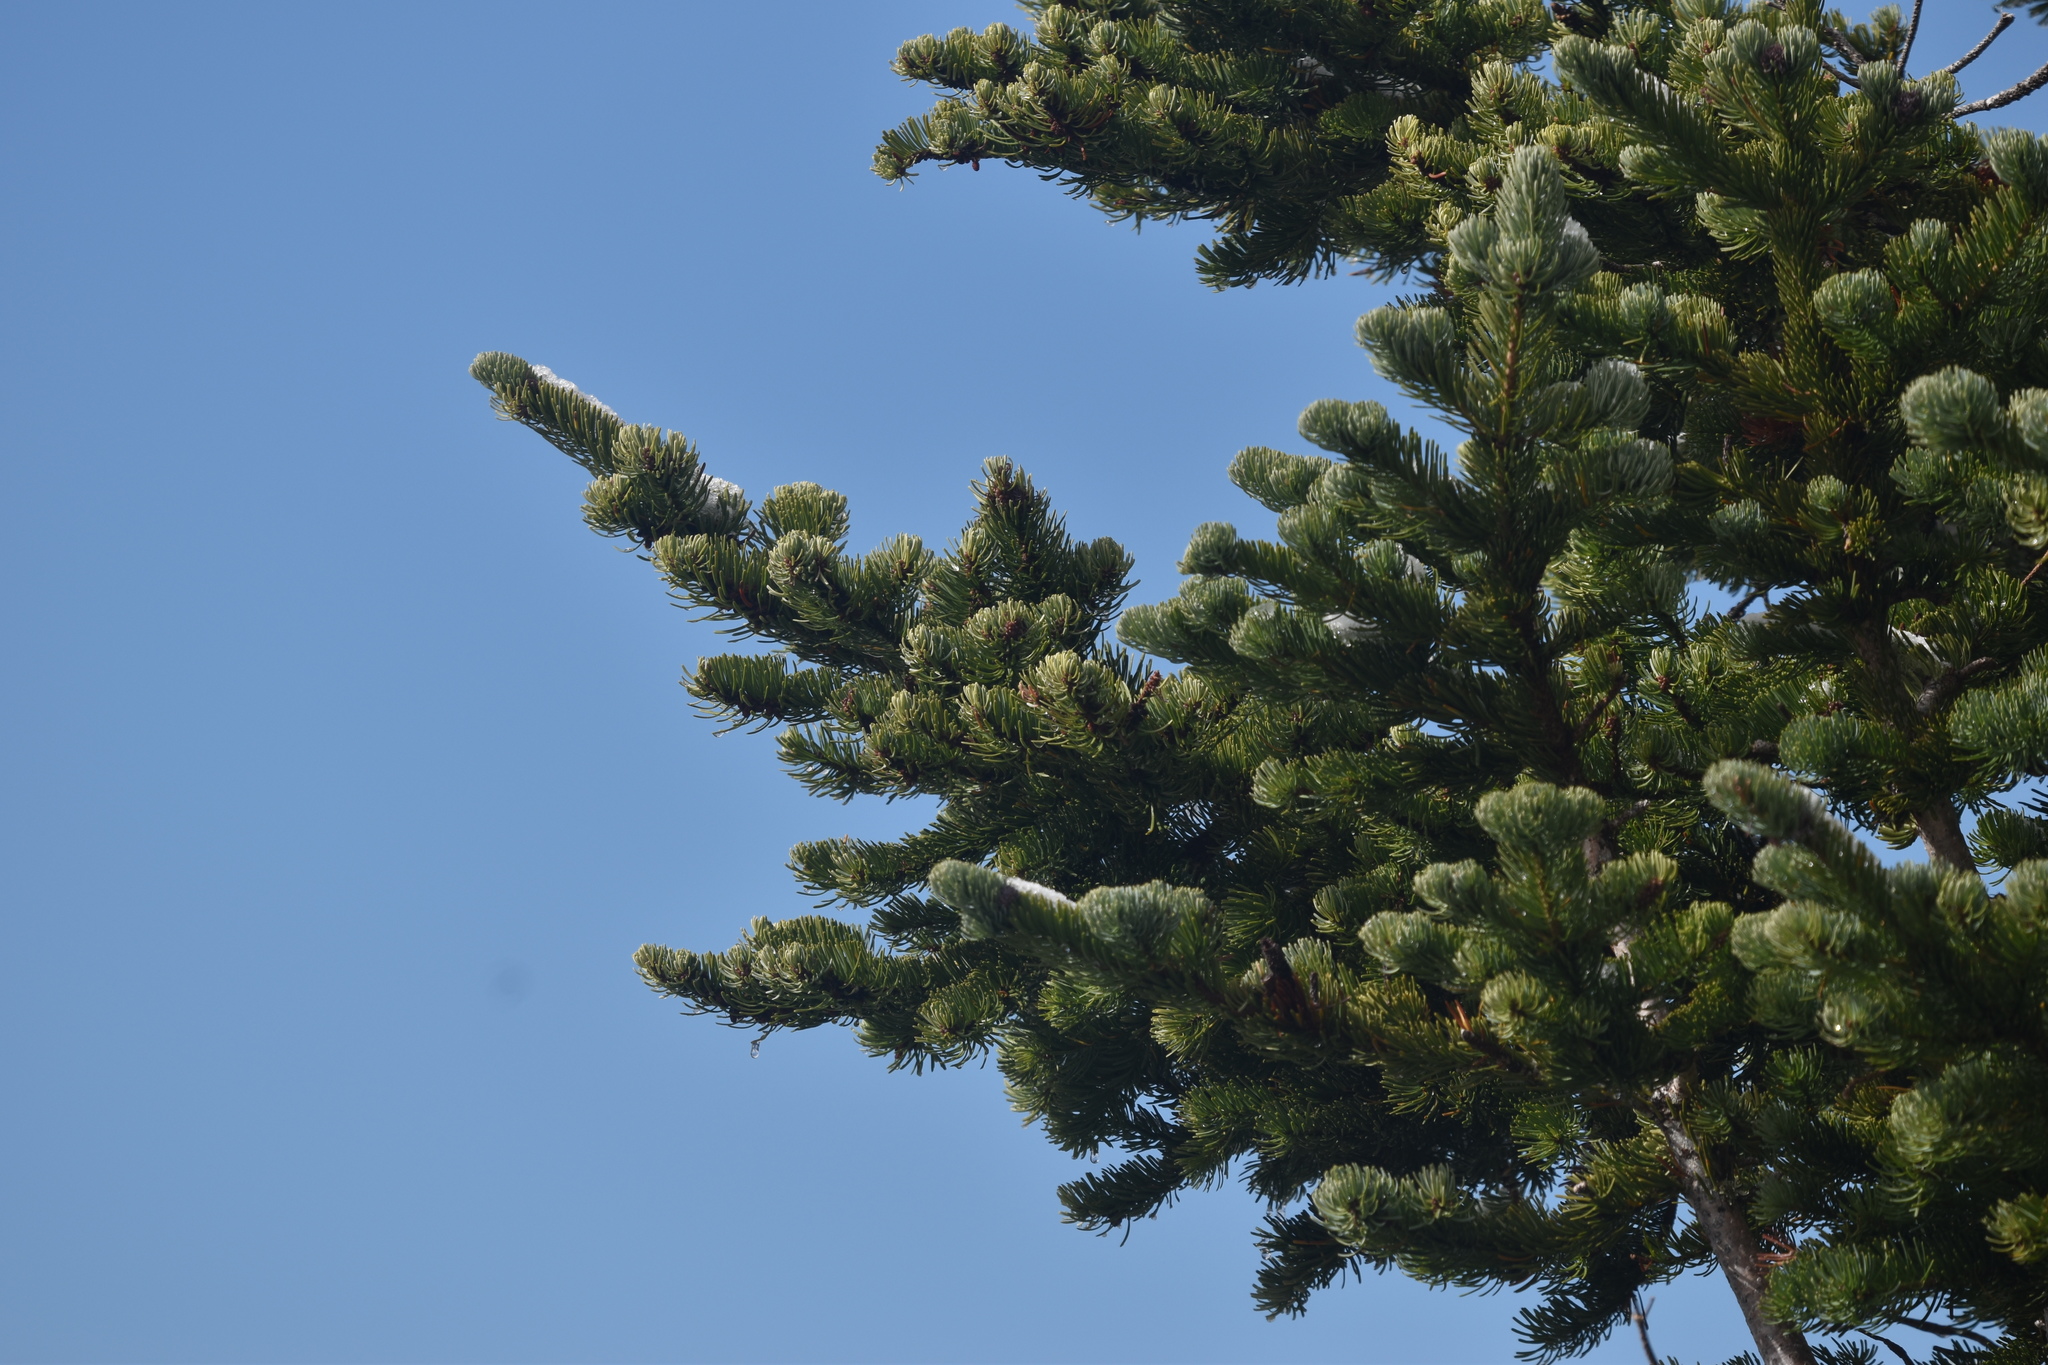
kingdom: Plantae
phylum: Tracheophyta
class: Pinopsida
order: Pinales
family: Pinaceae
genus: Abies
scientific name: Abies lasiocarpa
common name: Subalpine fir
